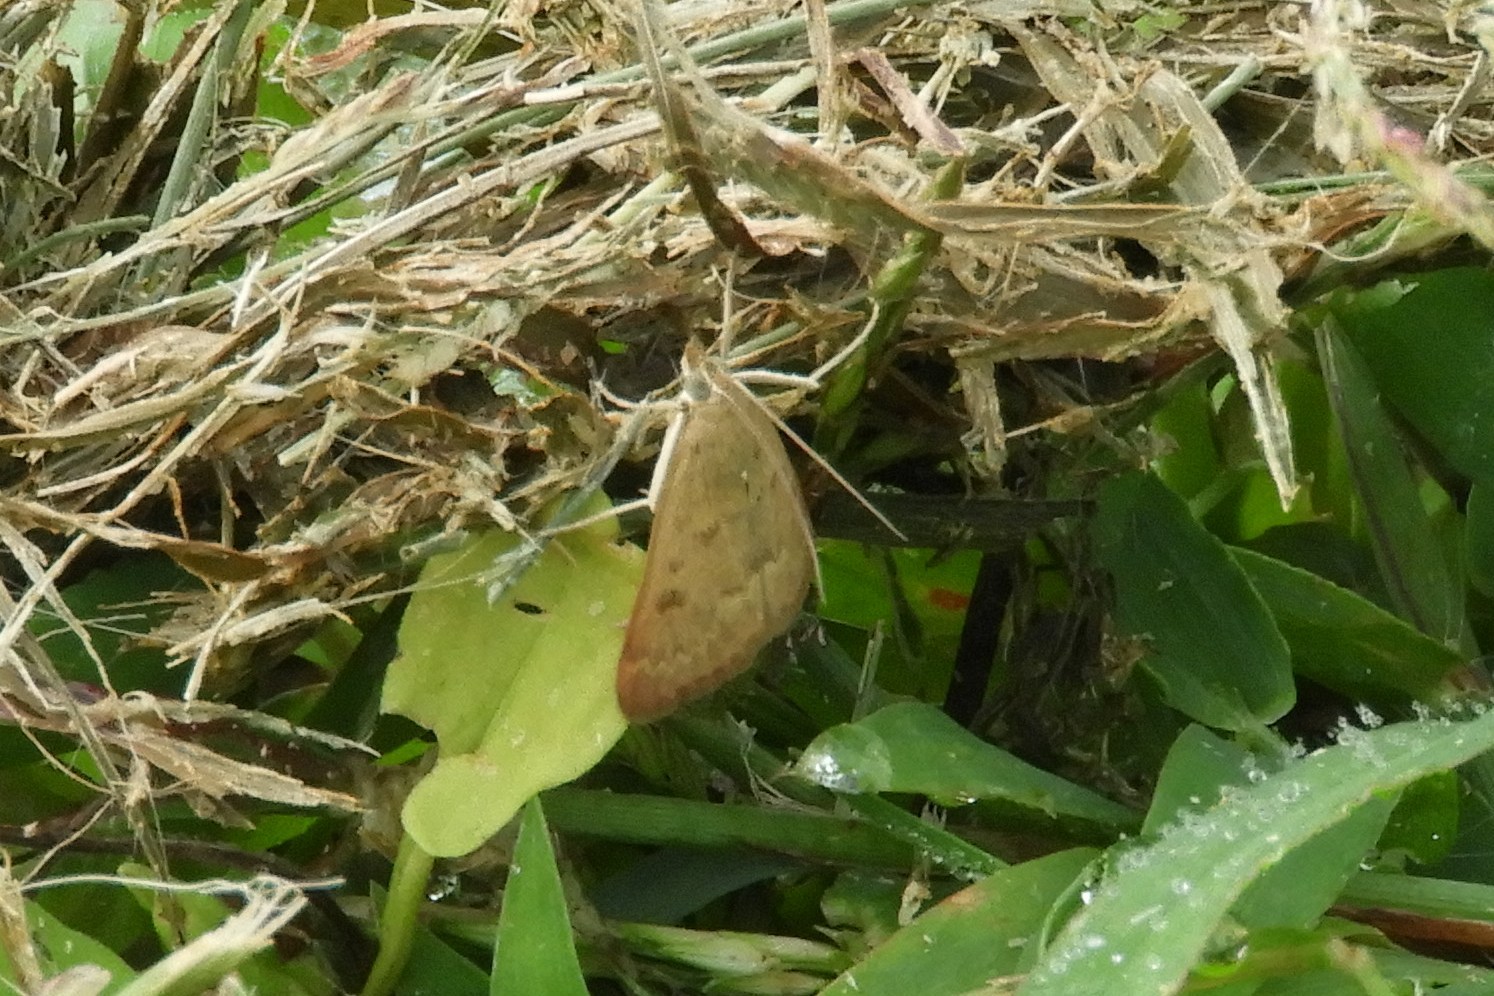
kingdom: Animalia
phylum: Arthropoda
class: Insecta
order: Lepidoptera
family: Crambidae
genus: Achyra
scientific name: Achyra rantalis
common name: Garden webworm
